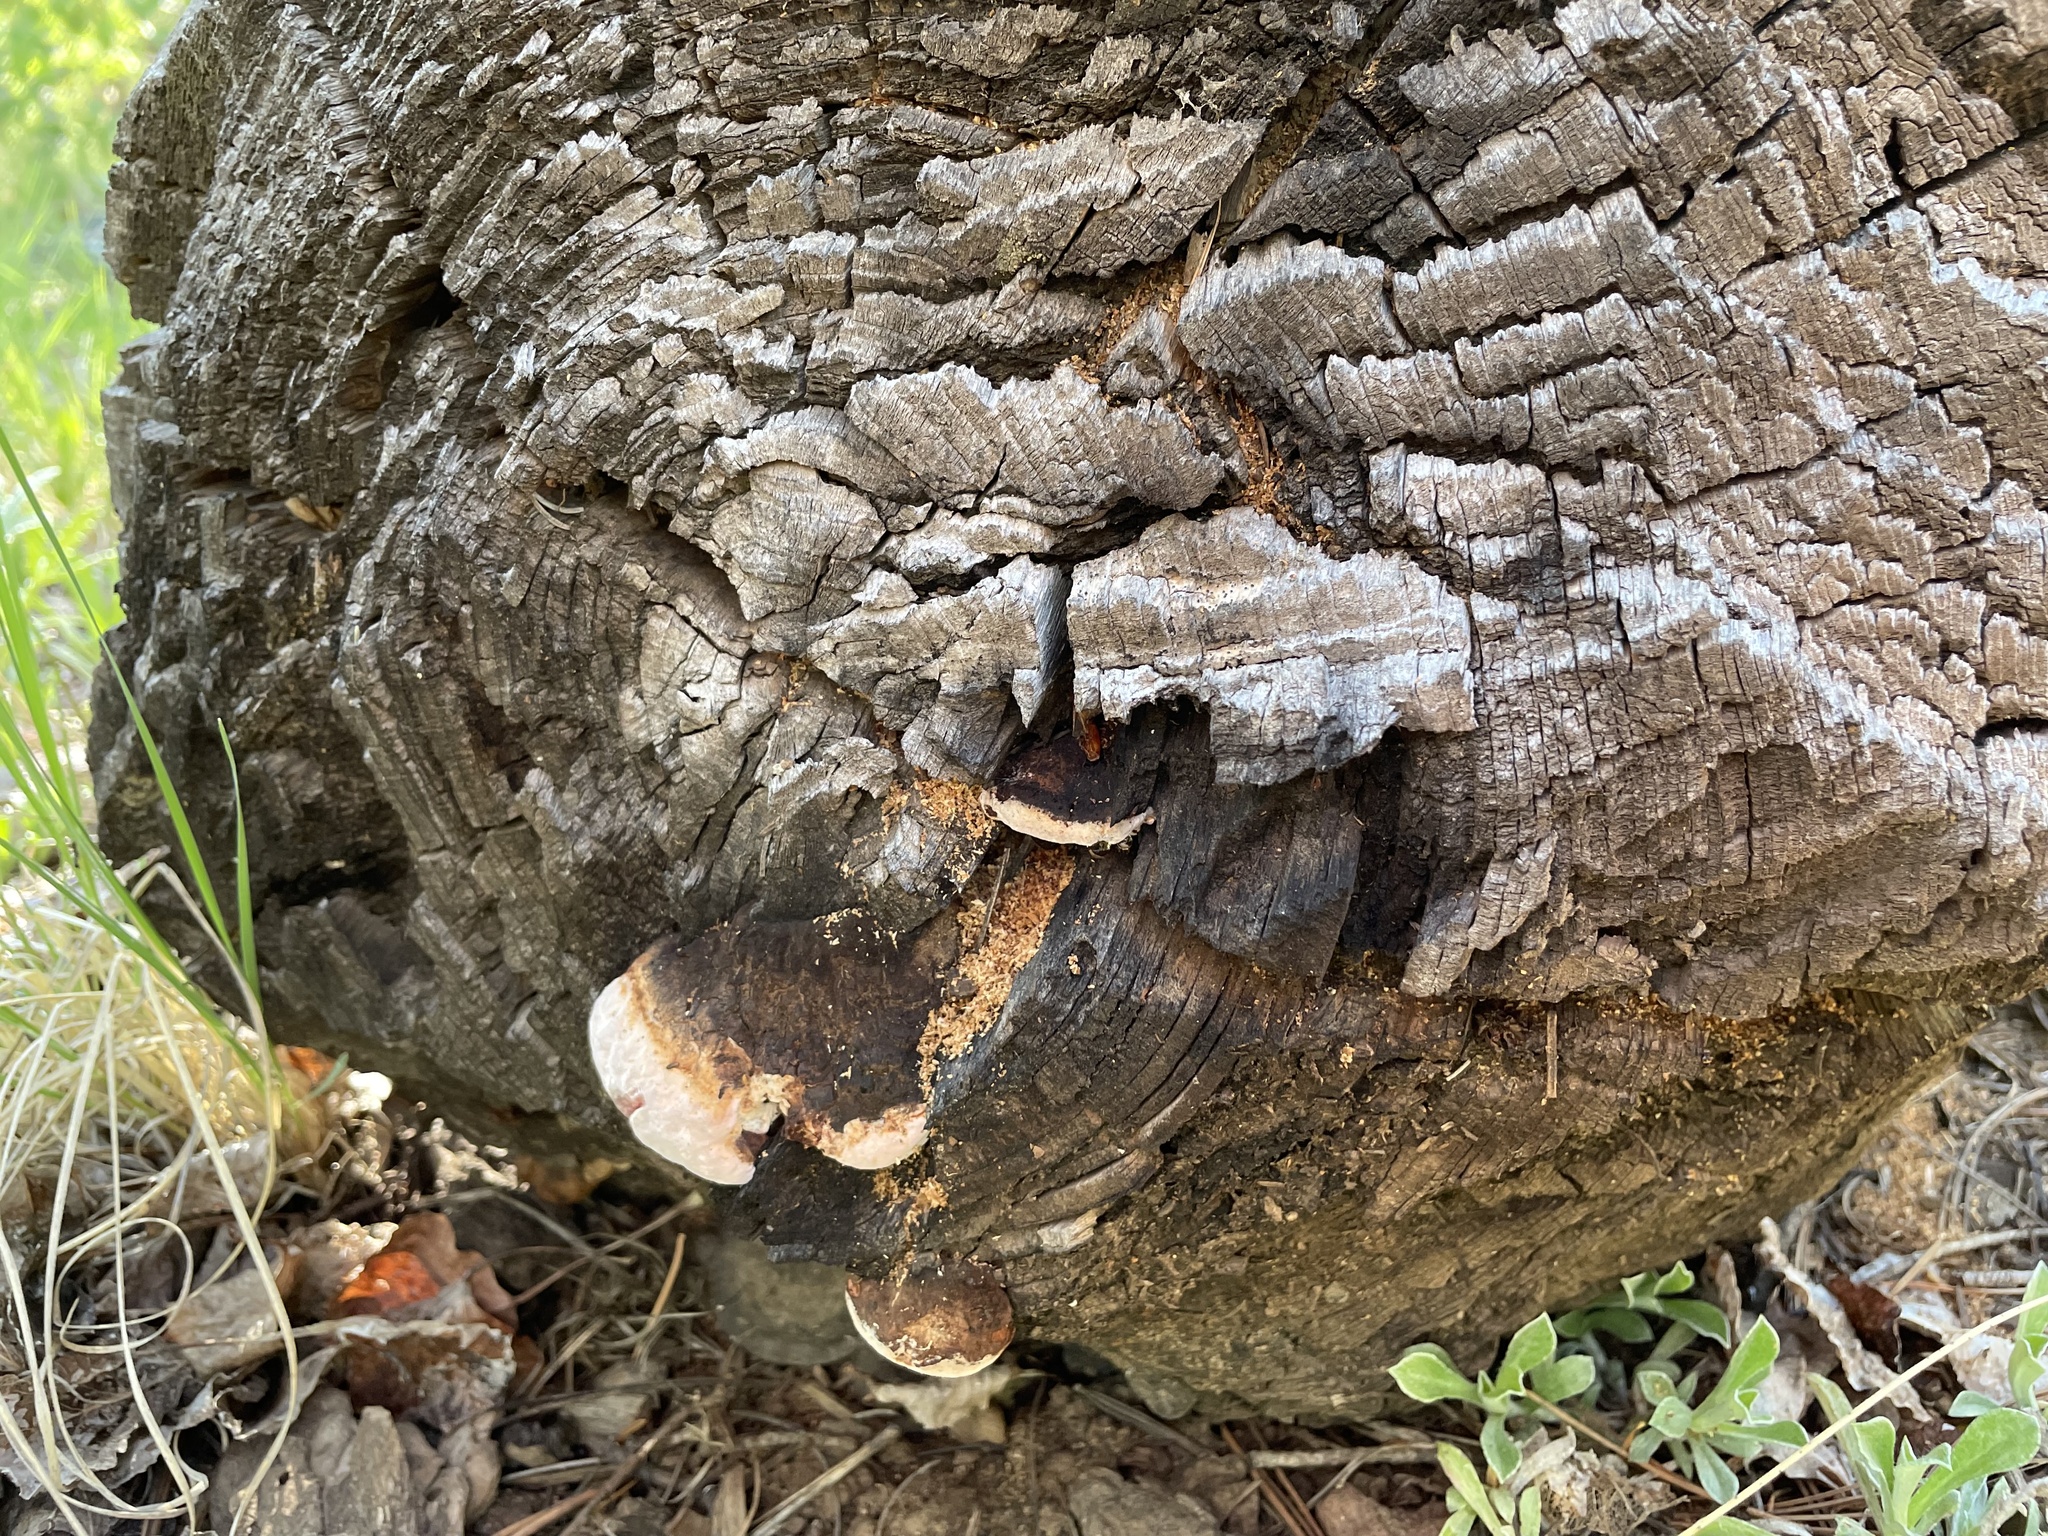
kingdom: Fungi
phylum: Basidiomycota
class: Agaricomycetes
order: Polyporales
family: Fomitopsidaceae
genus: Fomitopsis
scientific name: Fomitopsis schrenkii
